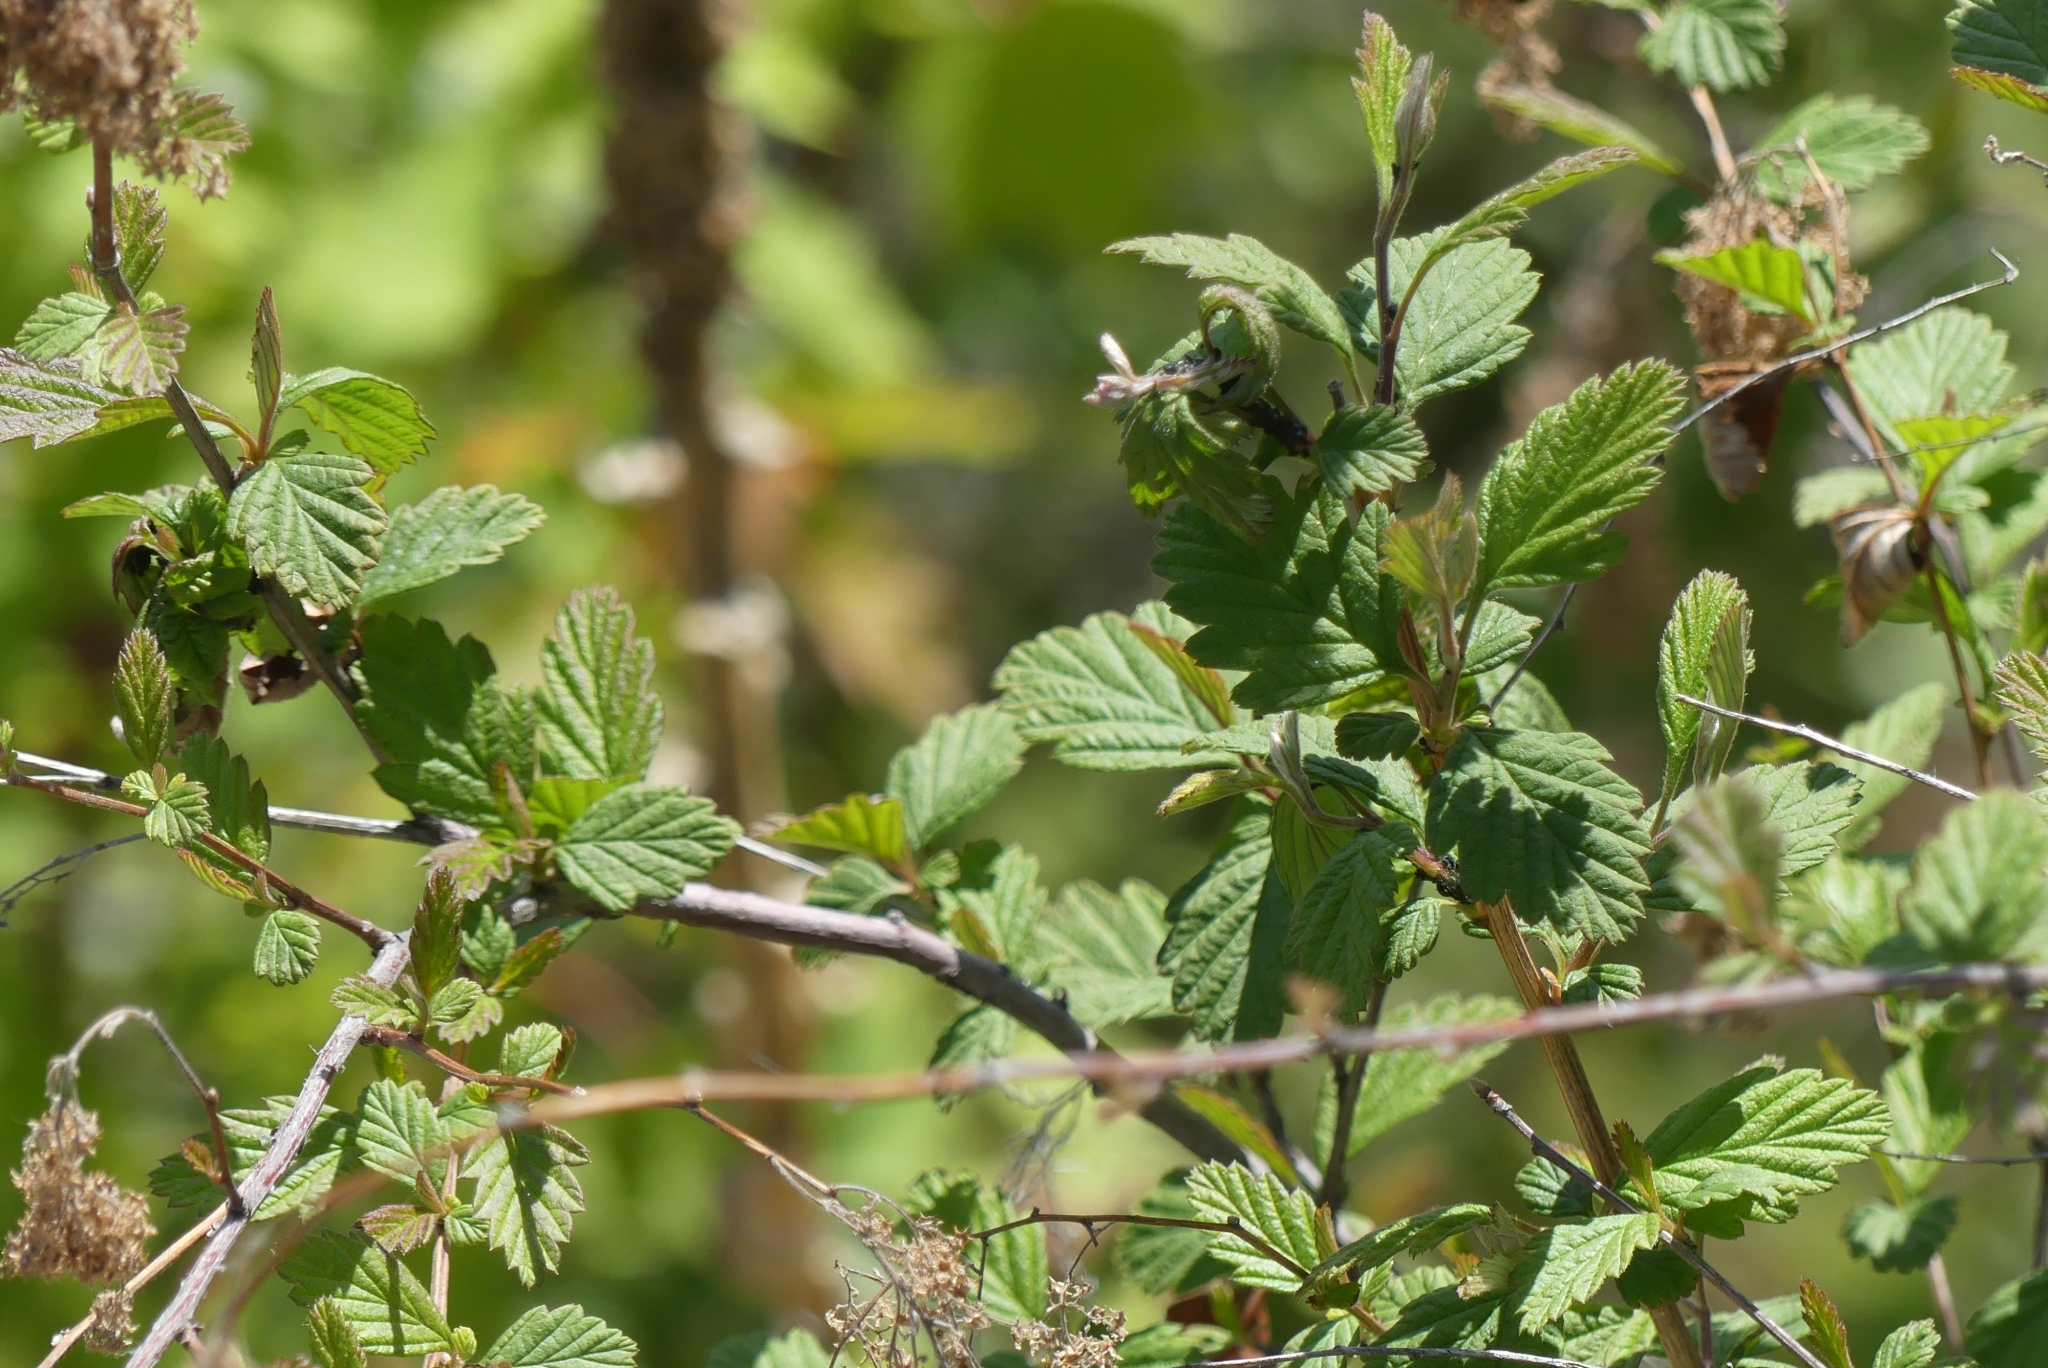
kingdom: Plantae
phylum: Tracheophyta
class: Magnoliopsida
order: Rosales
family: Rosaceae
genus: Holodiscus
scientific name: Holodiscus discolor
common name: Oceanspray
